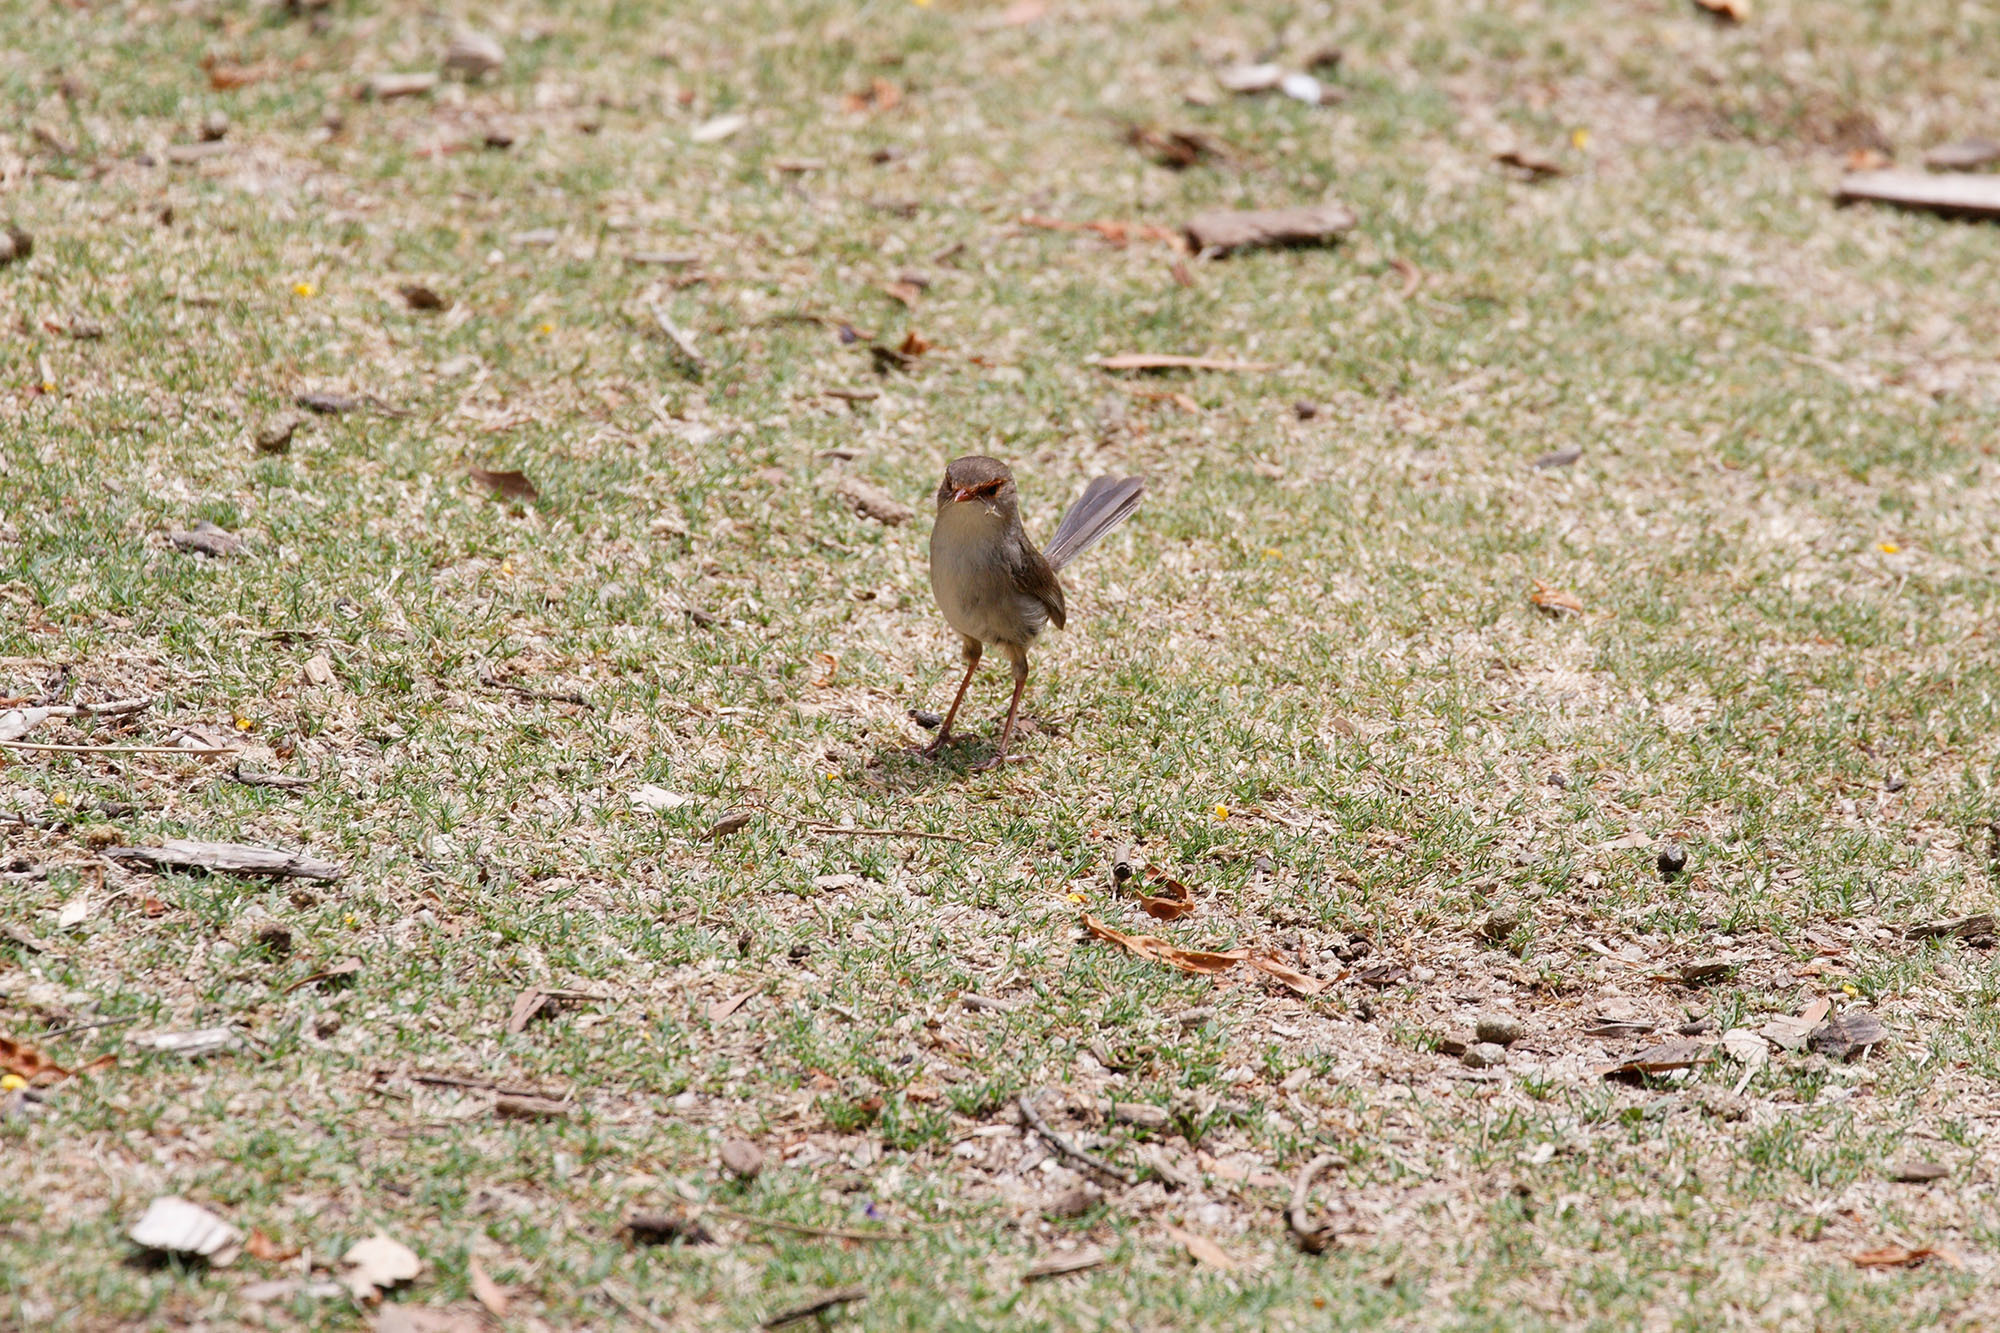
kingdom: Animalia
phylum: Chordata
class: Aves
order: Passeriformes
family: Maluridae
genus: Malurus
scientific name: Malurus cyaneus
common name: Superb fairywren
